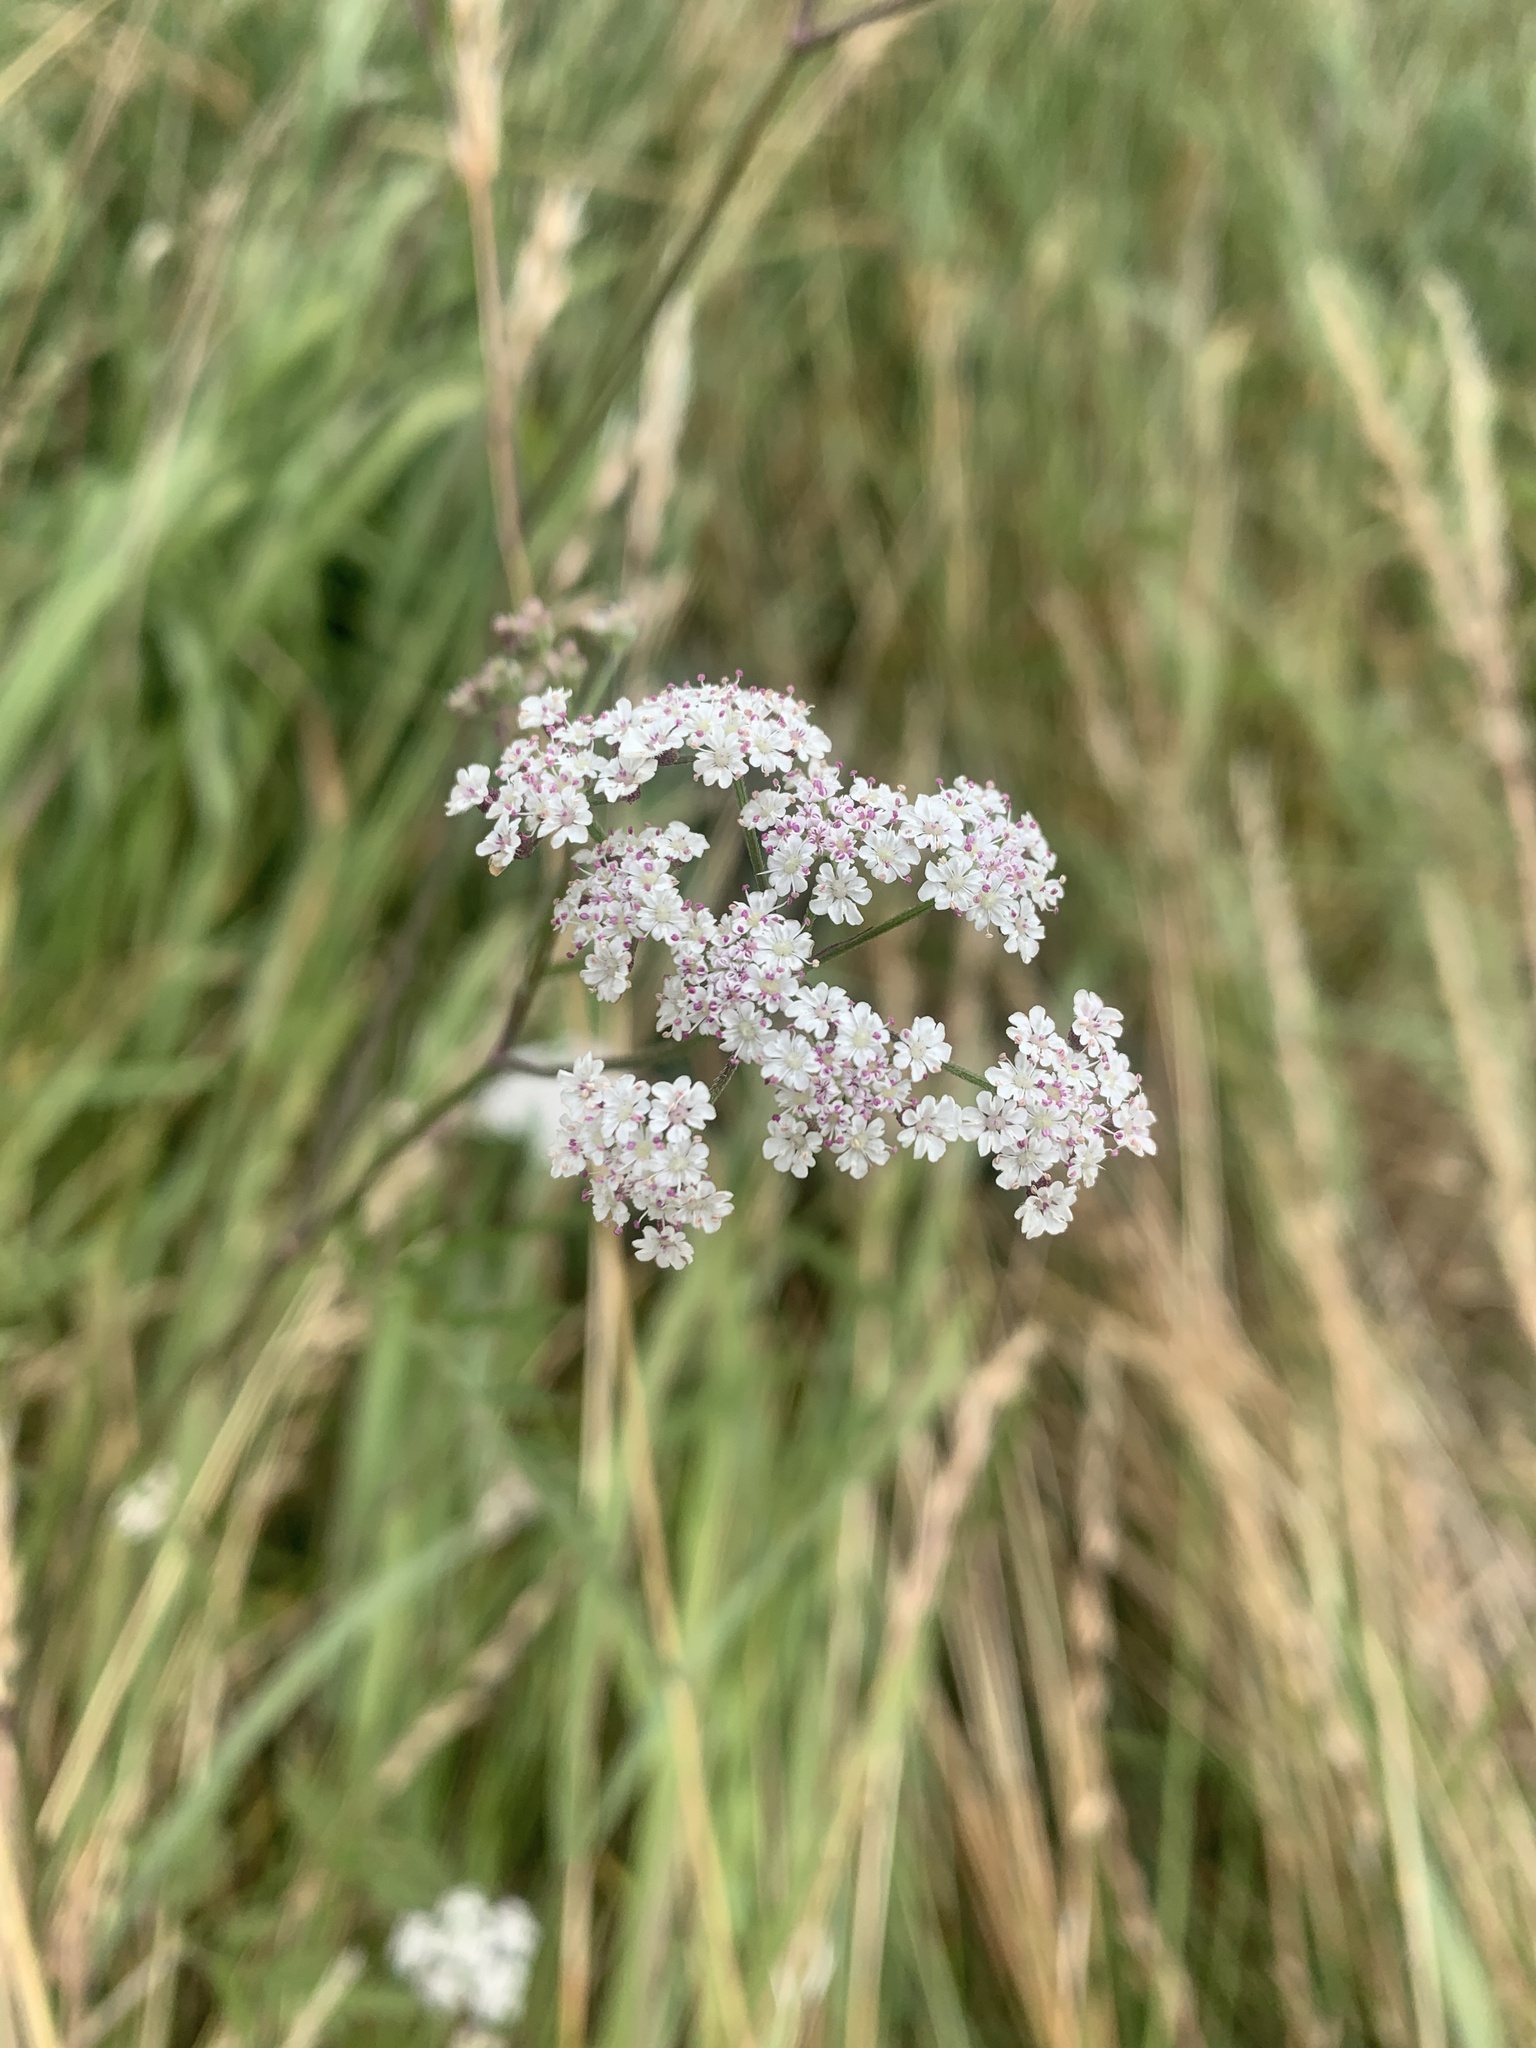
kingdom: Plantae
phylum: Tracheophyta
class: Magnoliopsida
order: Apiales
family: Apiaceae
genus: Torilis
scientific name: Torilis japonica
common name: Upright hedge-parsley
